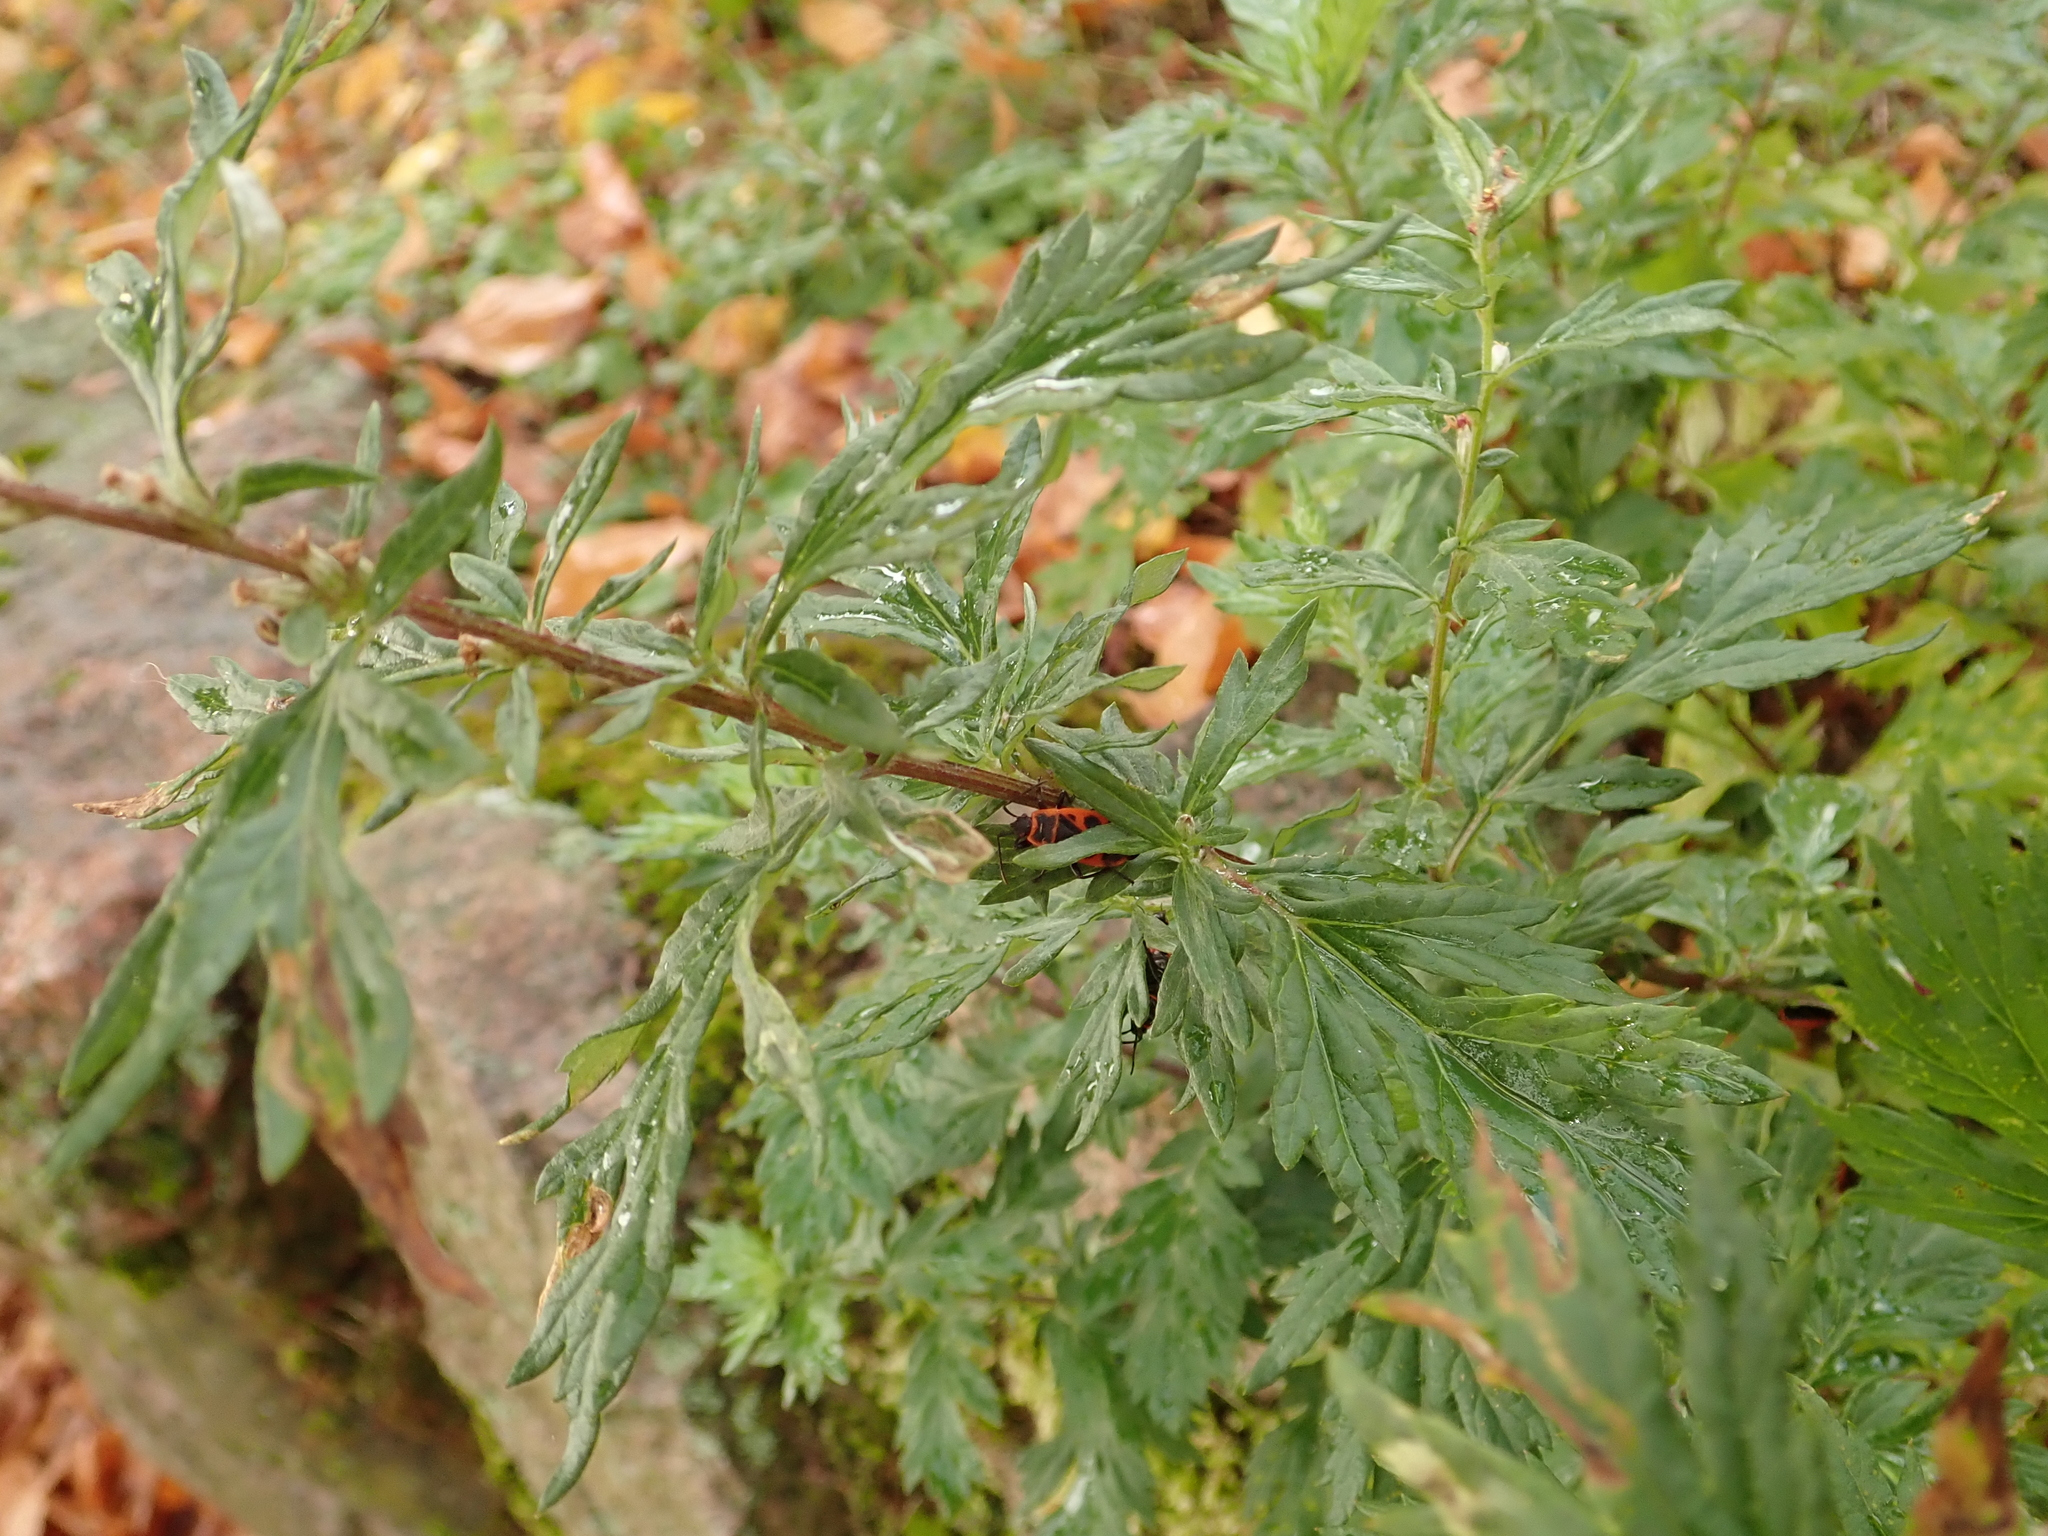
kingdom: Plantae
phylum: Tracheophyta
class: Magnoliopsida
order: Asterales
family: Asteraceae
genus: Artemisia
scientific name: Artemisia vulgaris
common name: Mugwort
